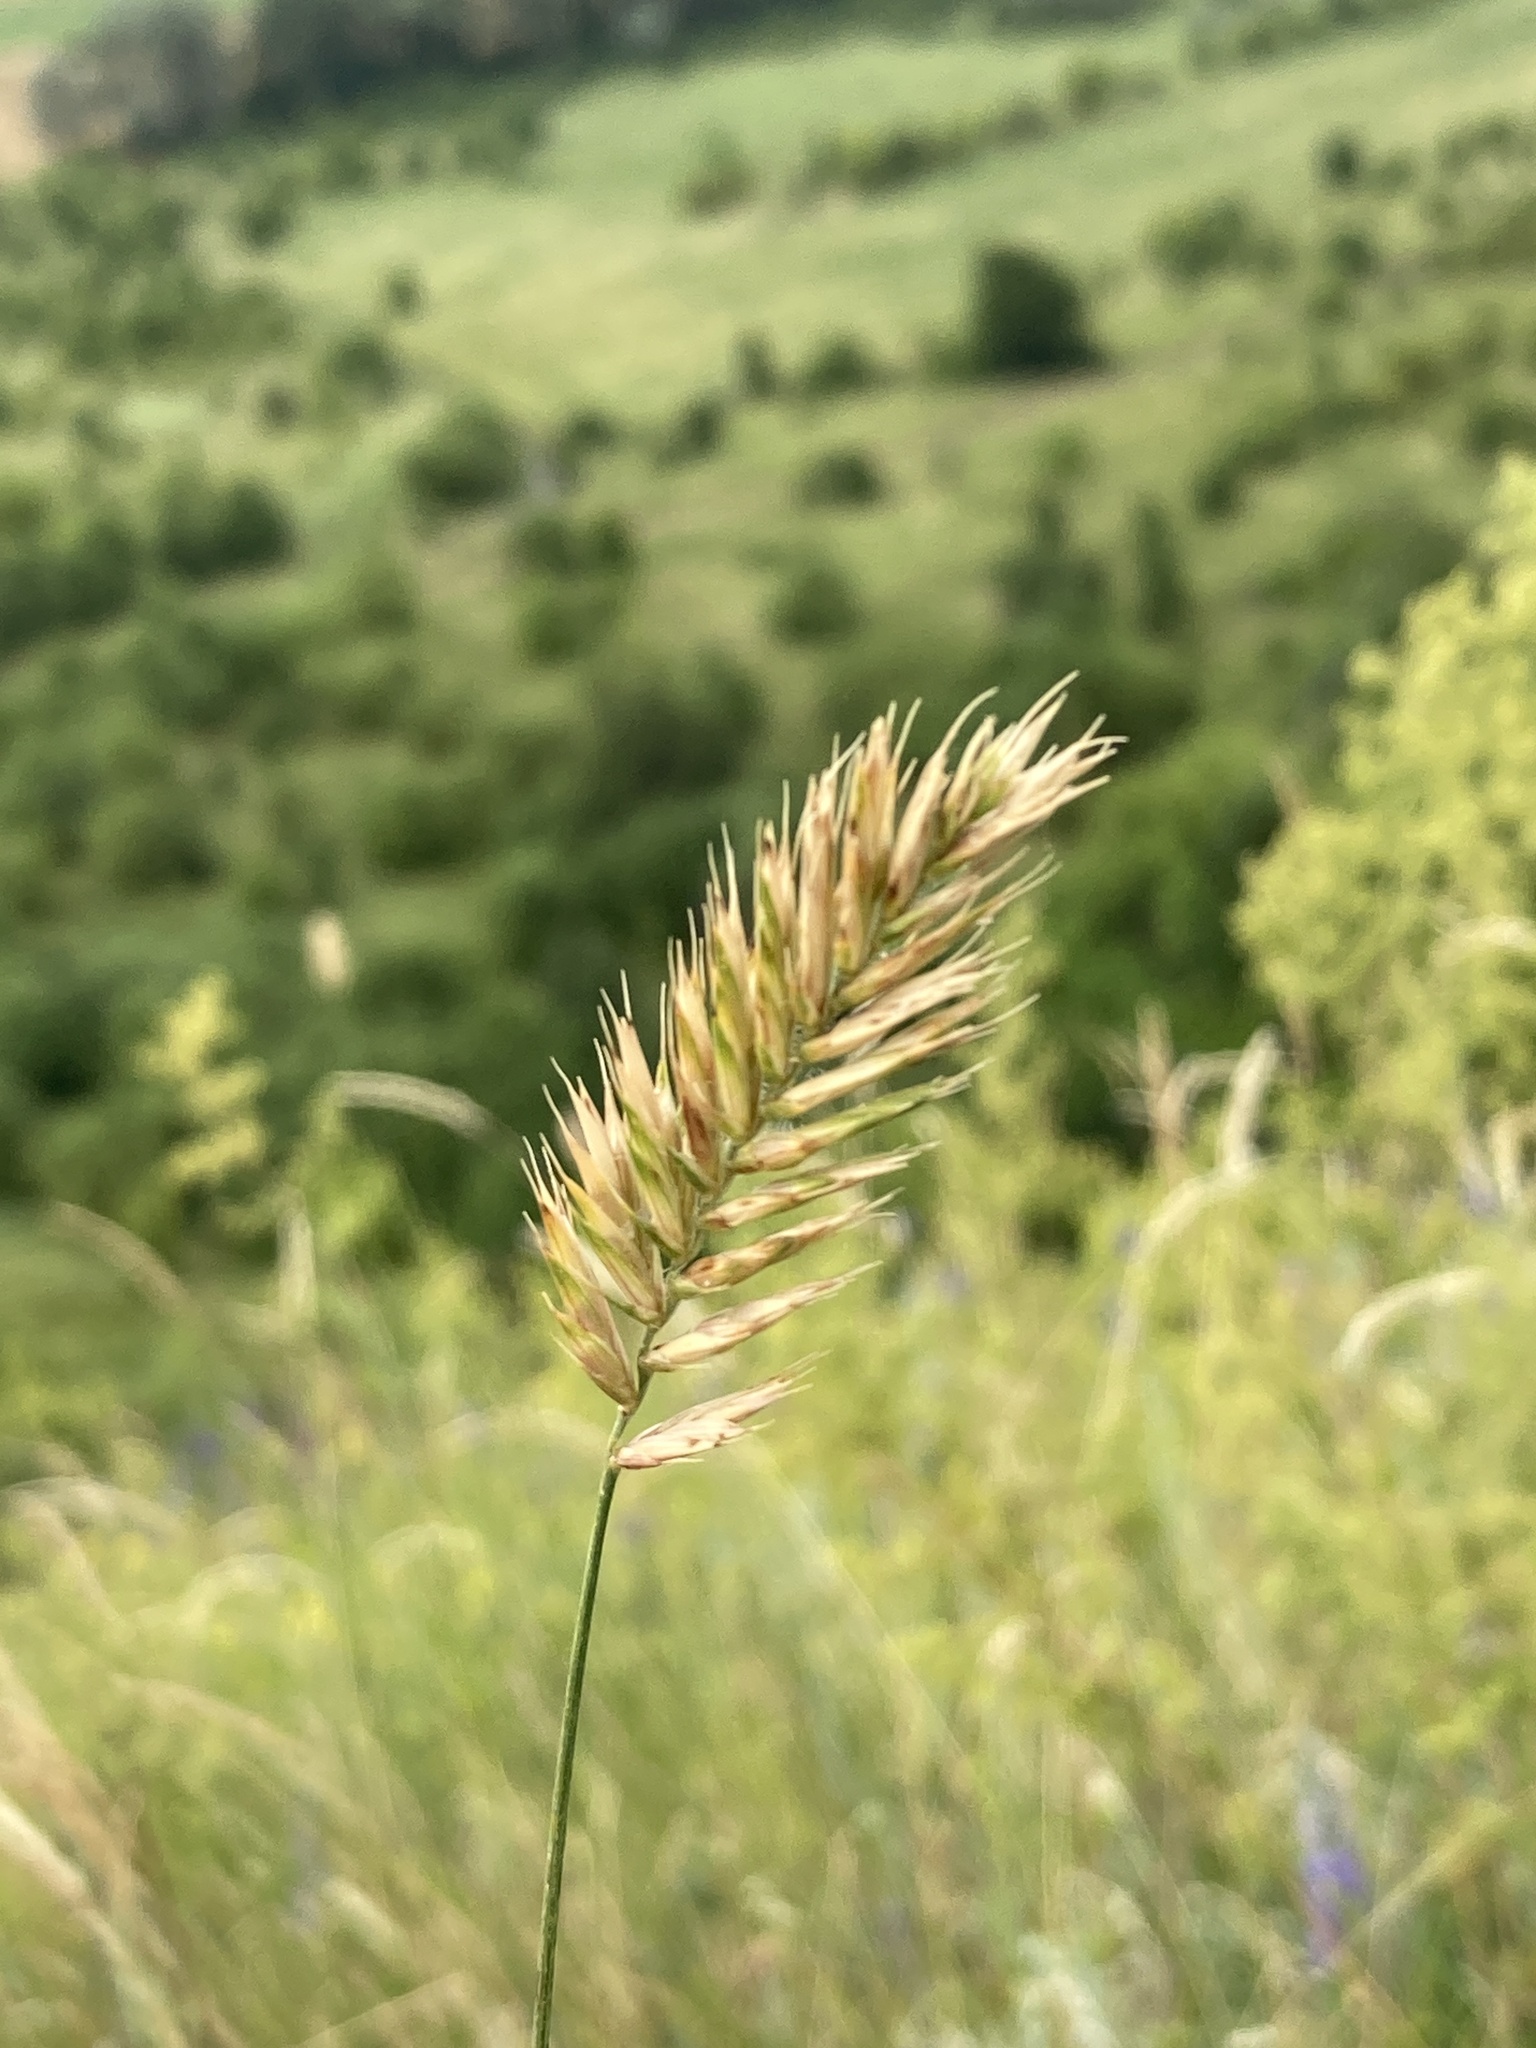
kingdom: Plantae
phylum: Tracheophyta
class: Liliopsida
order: Poales
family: Poaceae
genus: Agropyron
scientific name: Agropyron cristatum
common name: Crested wheatgrass
